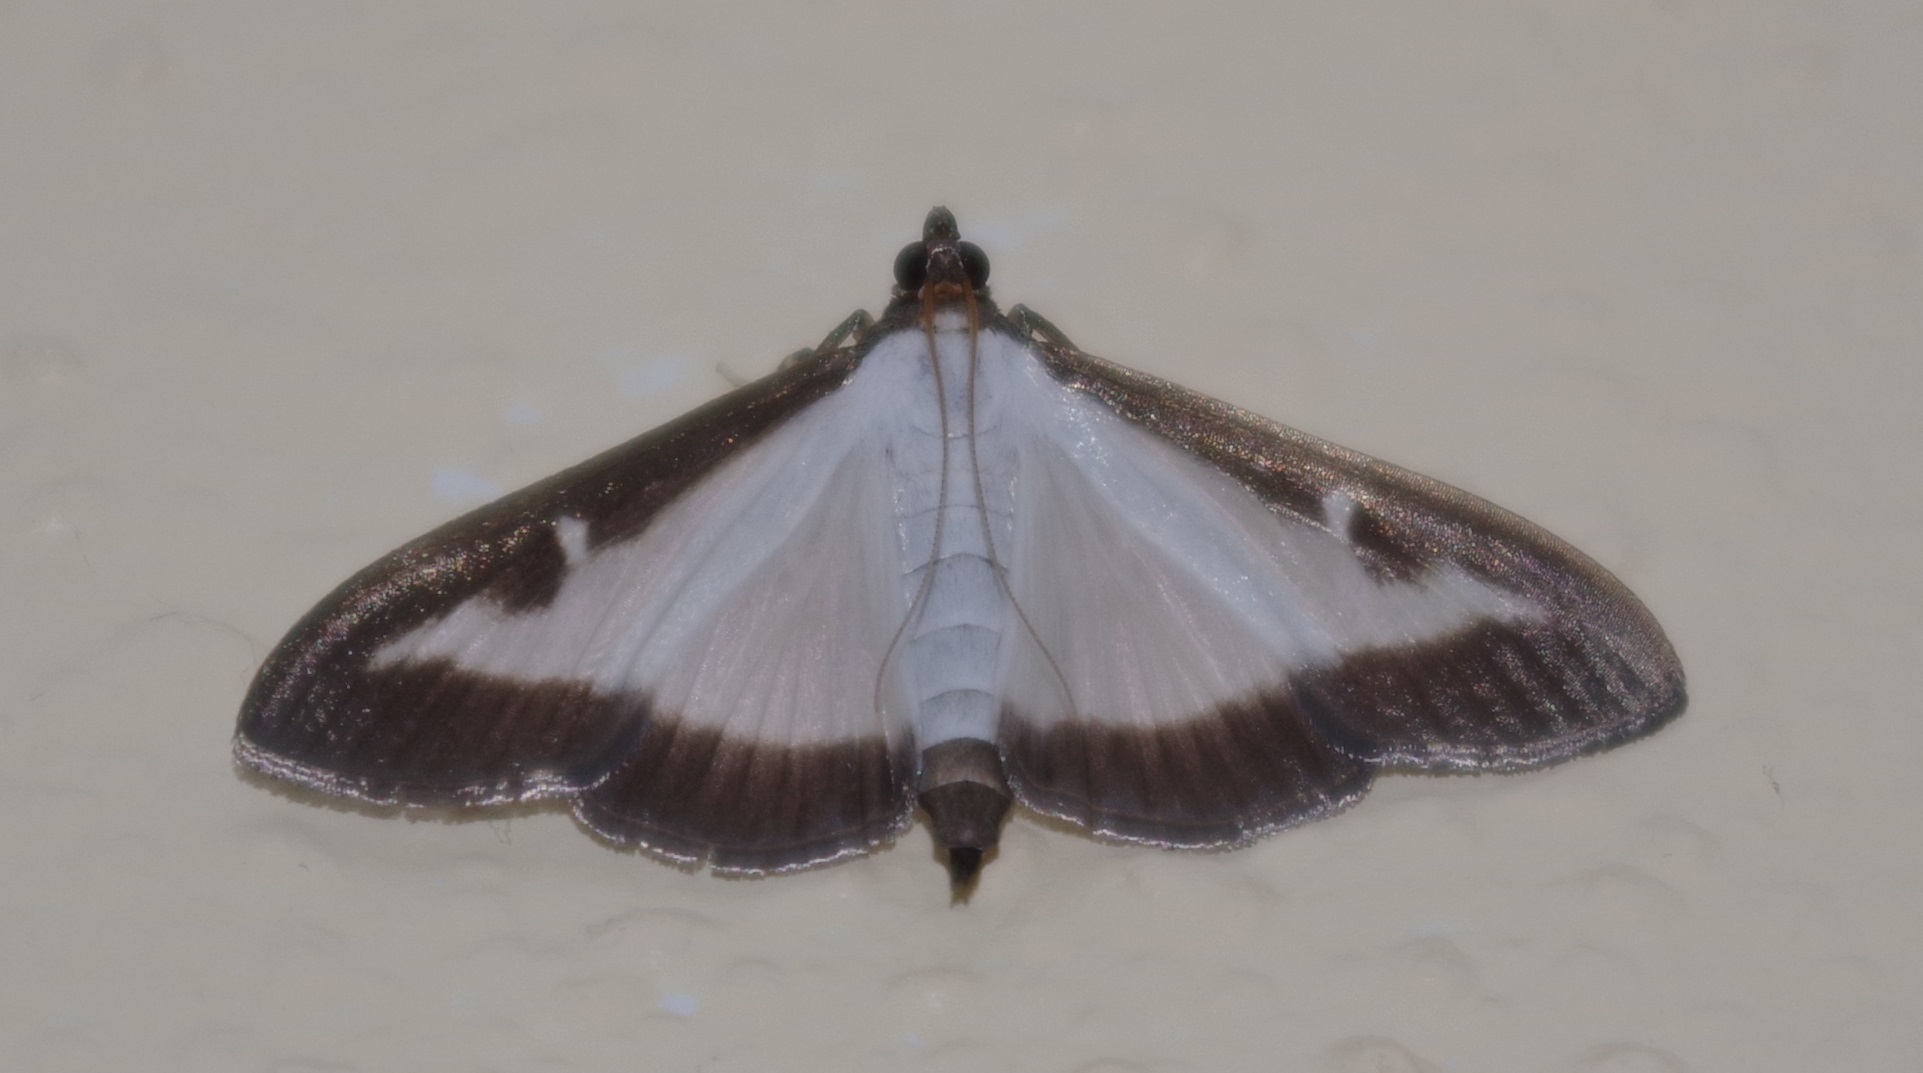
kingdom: Animalia
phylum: Arthropoda
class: Insecta
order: Lepidoptera
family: Crambidae
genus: Cydalima
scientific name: Cydalima perspectalis
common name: Box tree moth
